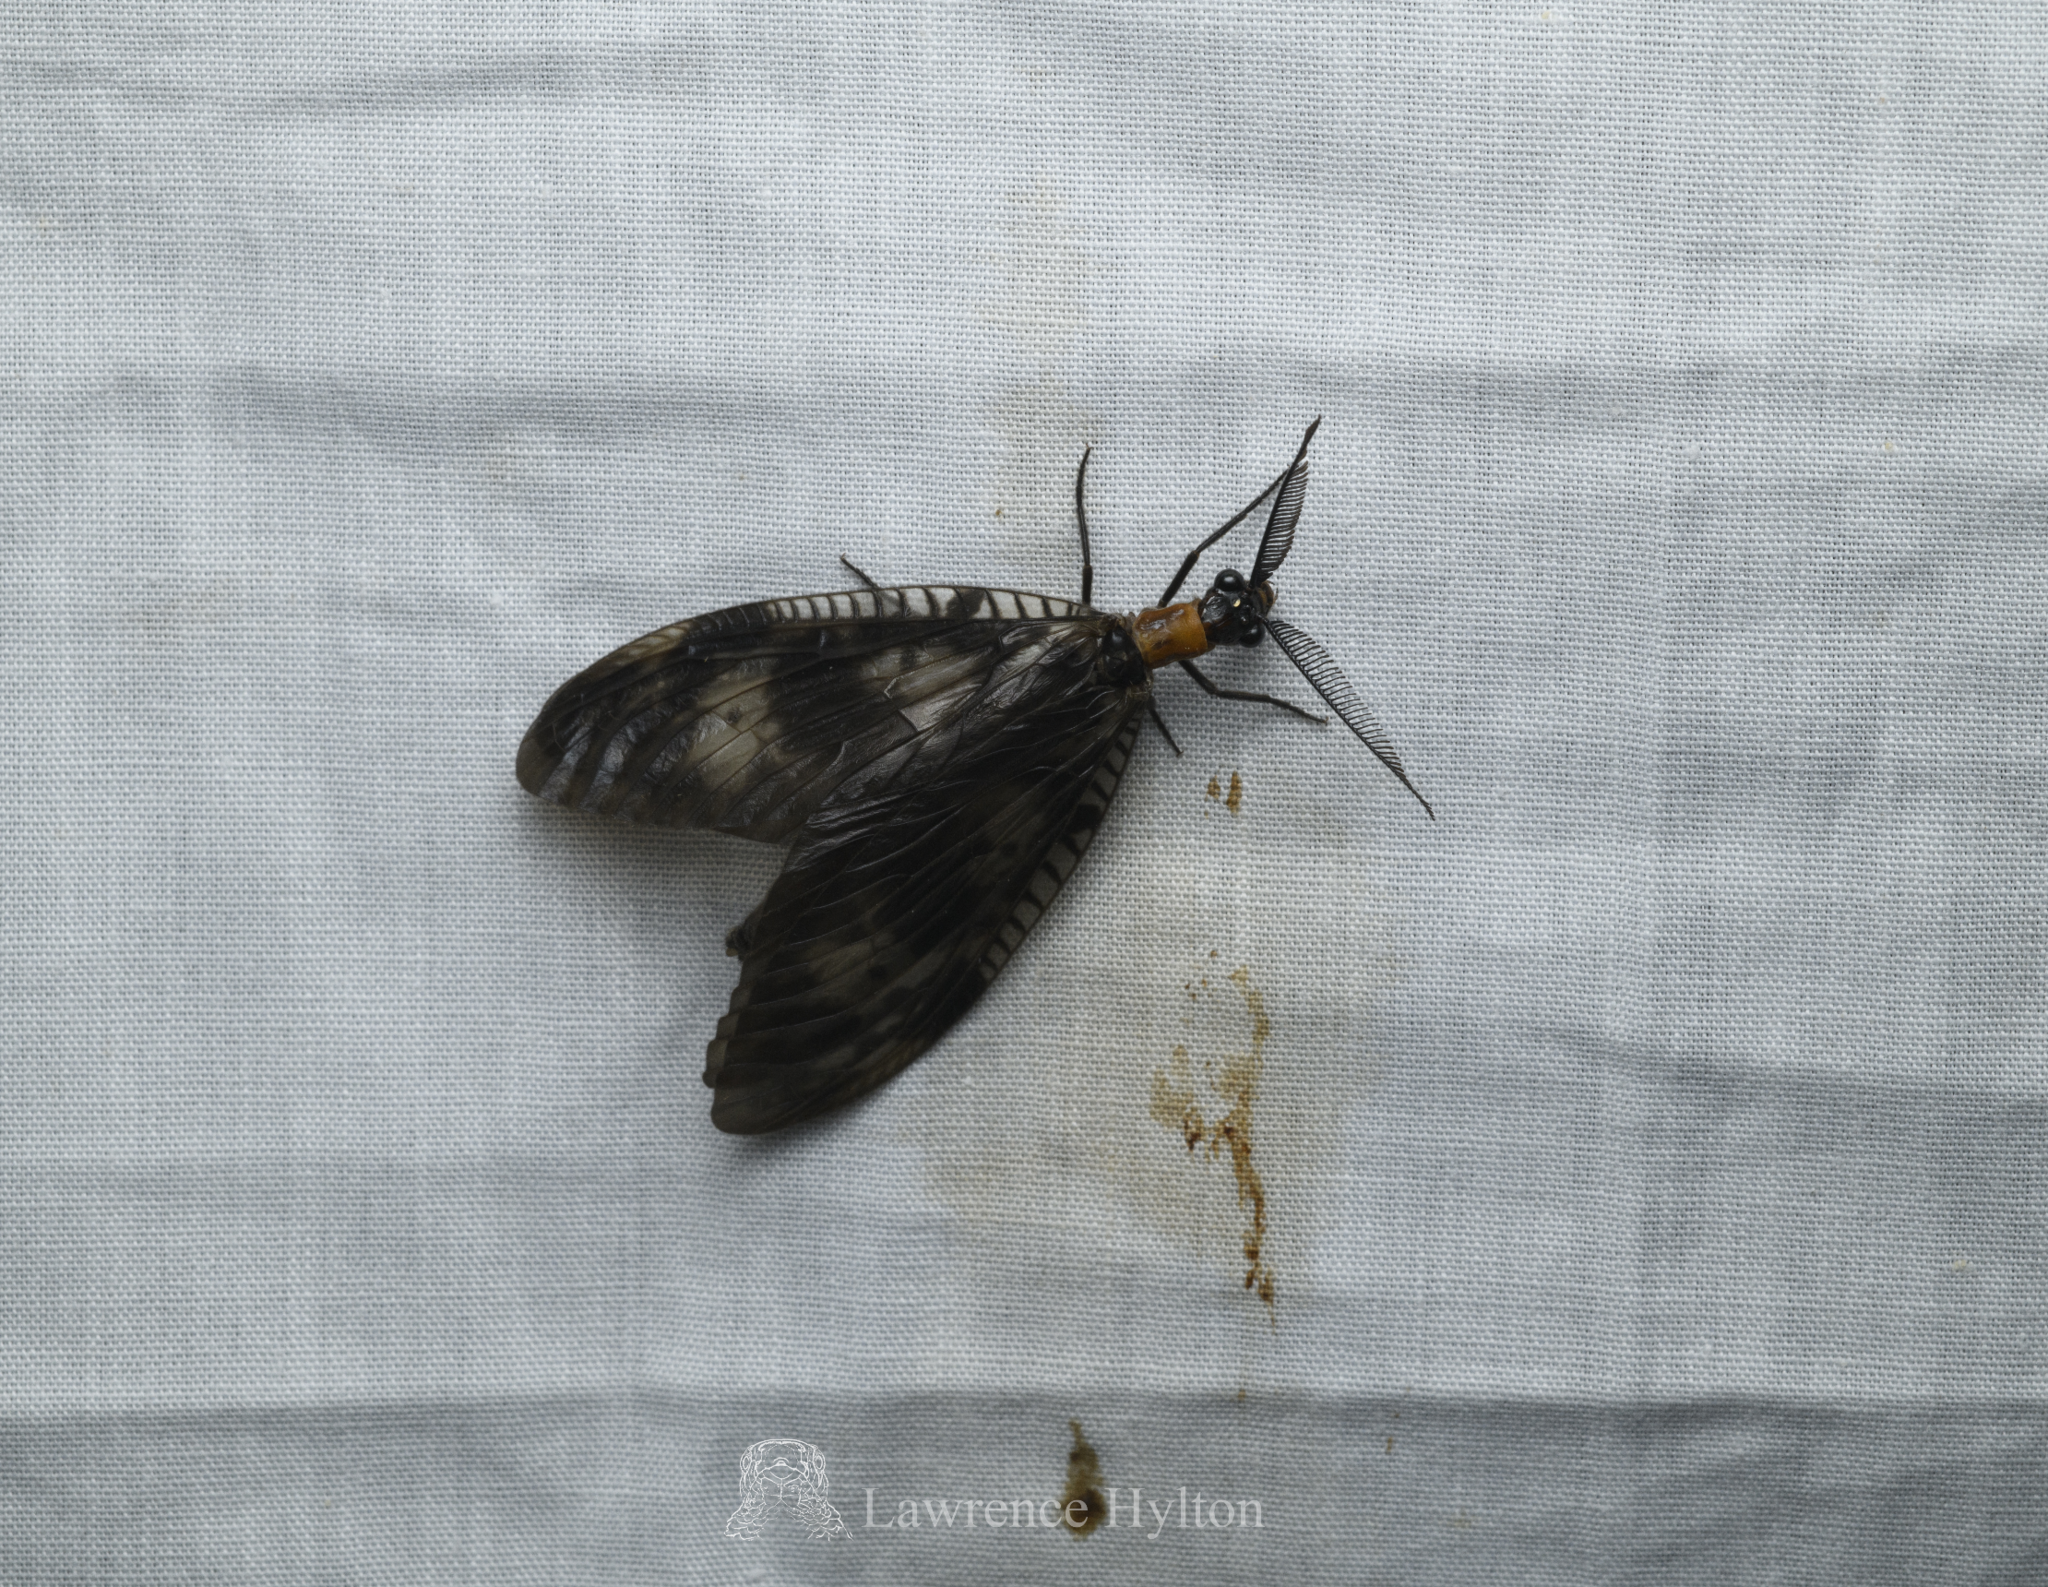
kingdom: Animalia
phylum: Arthropoda
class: Insecta
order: Megaloptera
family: Corydalidae
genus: Neochauliodes
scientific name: Neochauliodes koreanus
